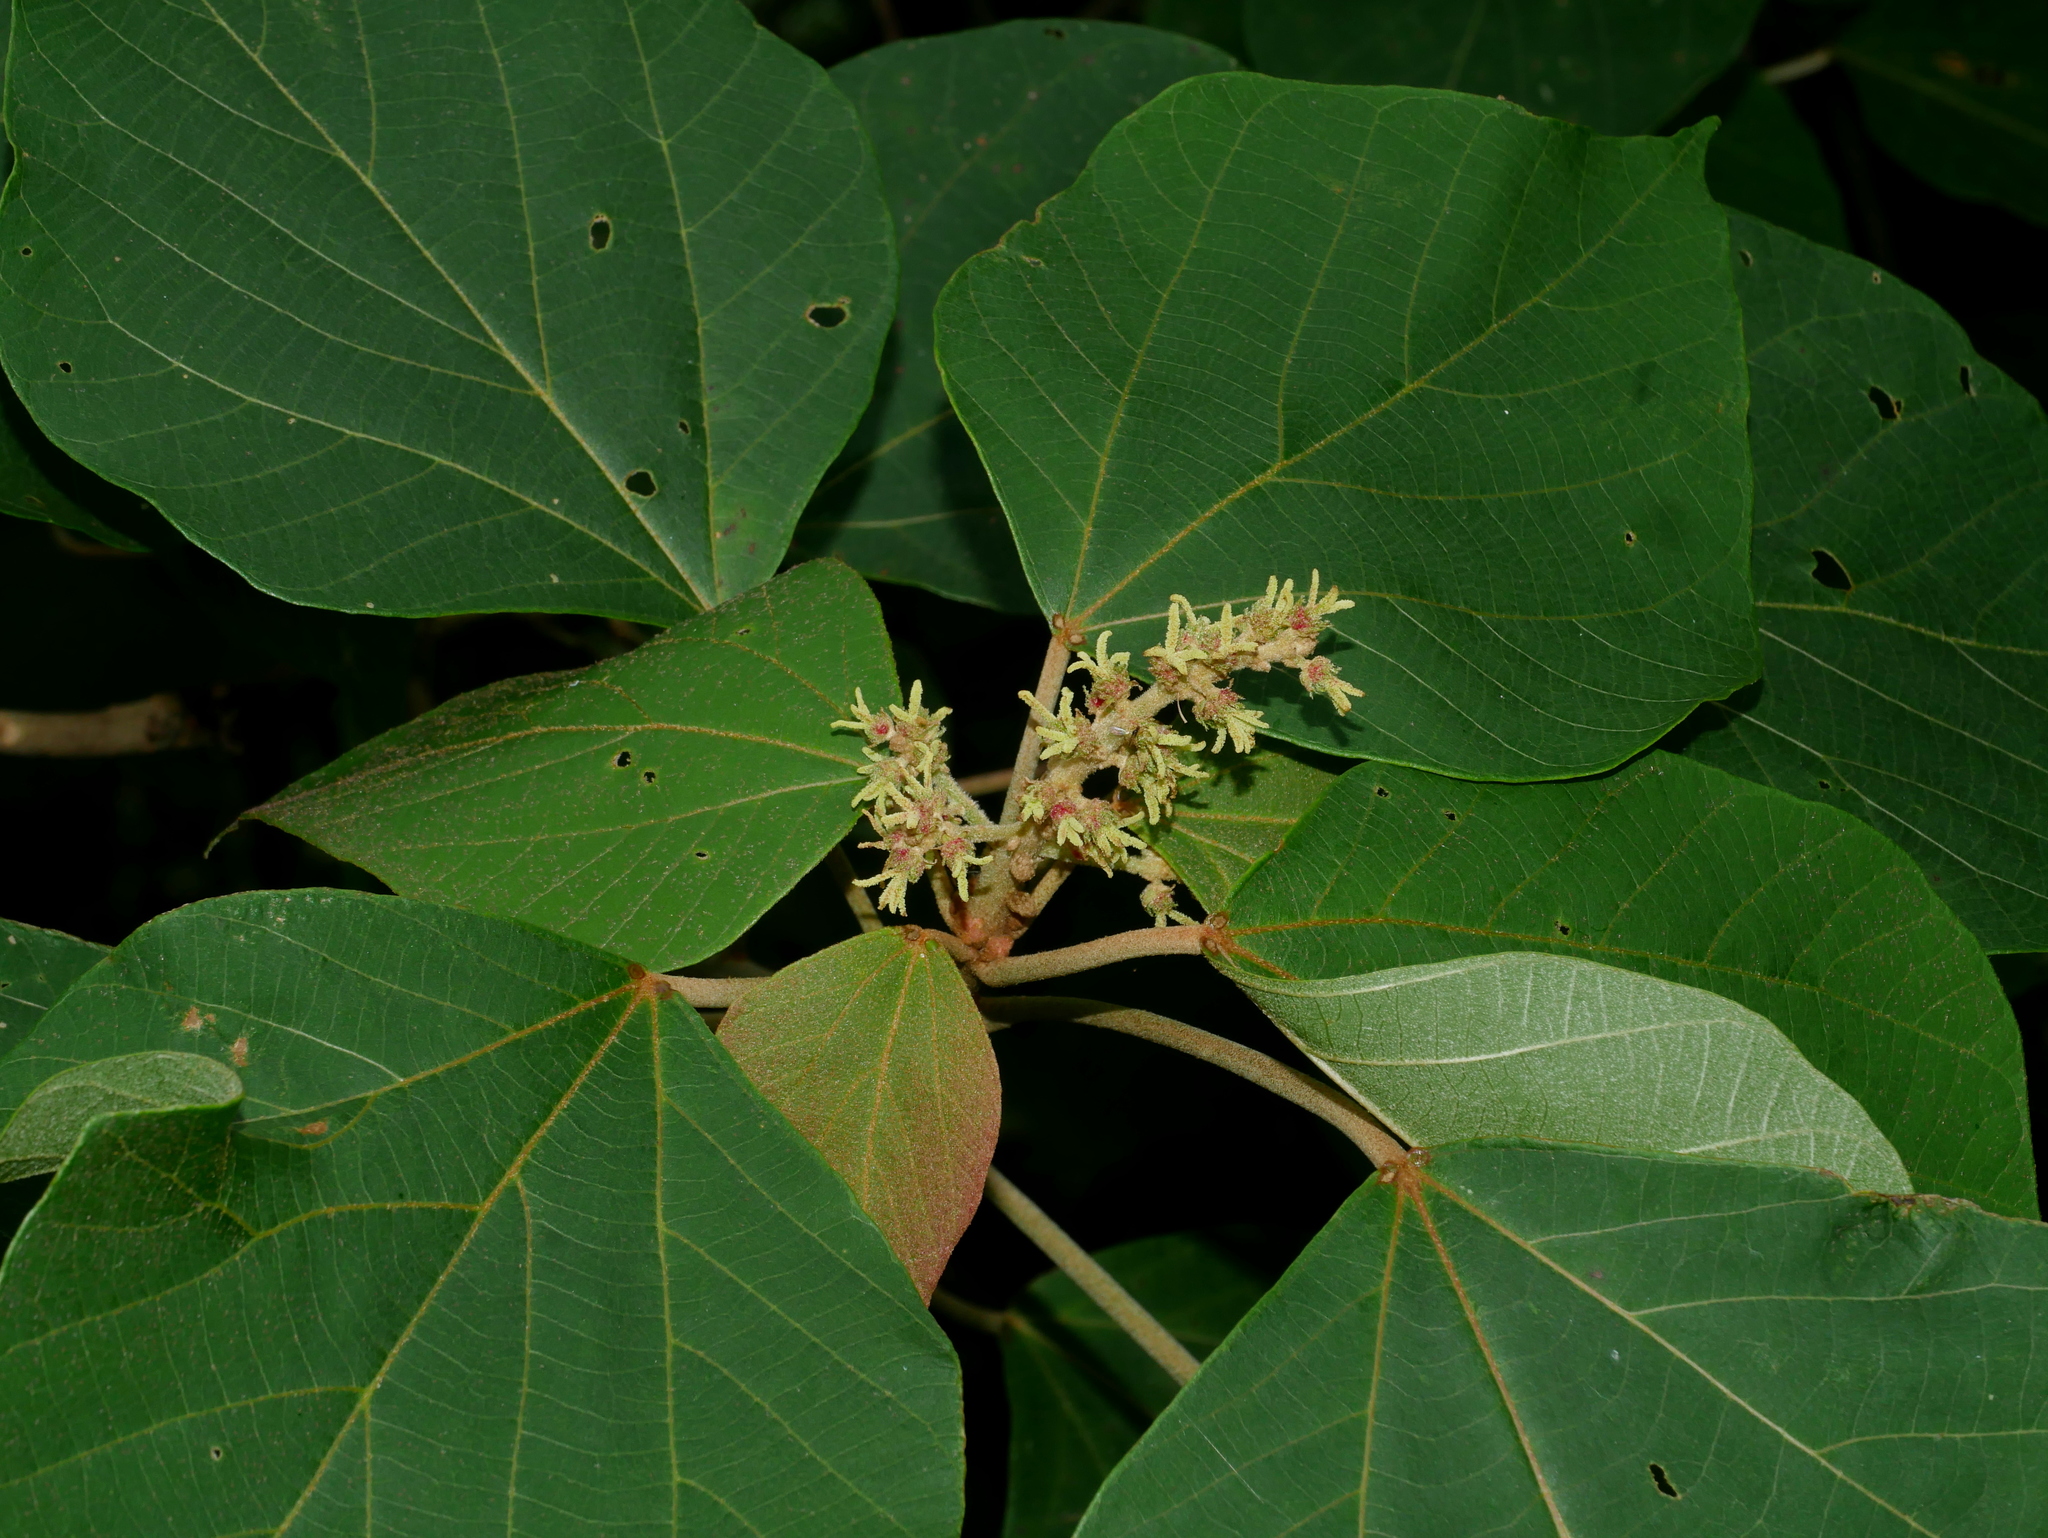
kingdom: Plantae
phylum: Tracheophyta
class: Magnoliopsida
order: Malpighiales
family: Euphorbiaceae
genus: Mallotus
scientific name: Mallotus japonicus
